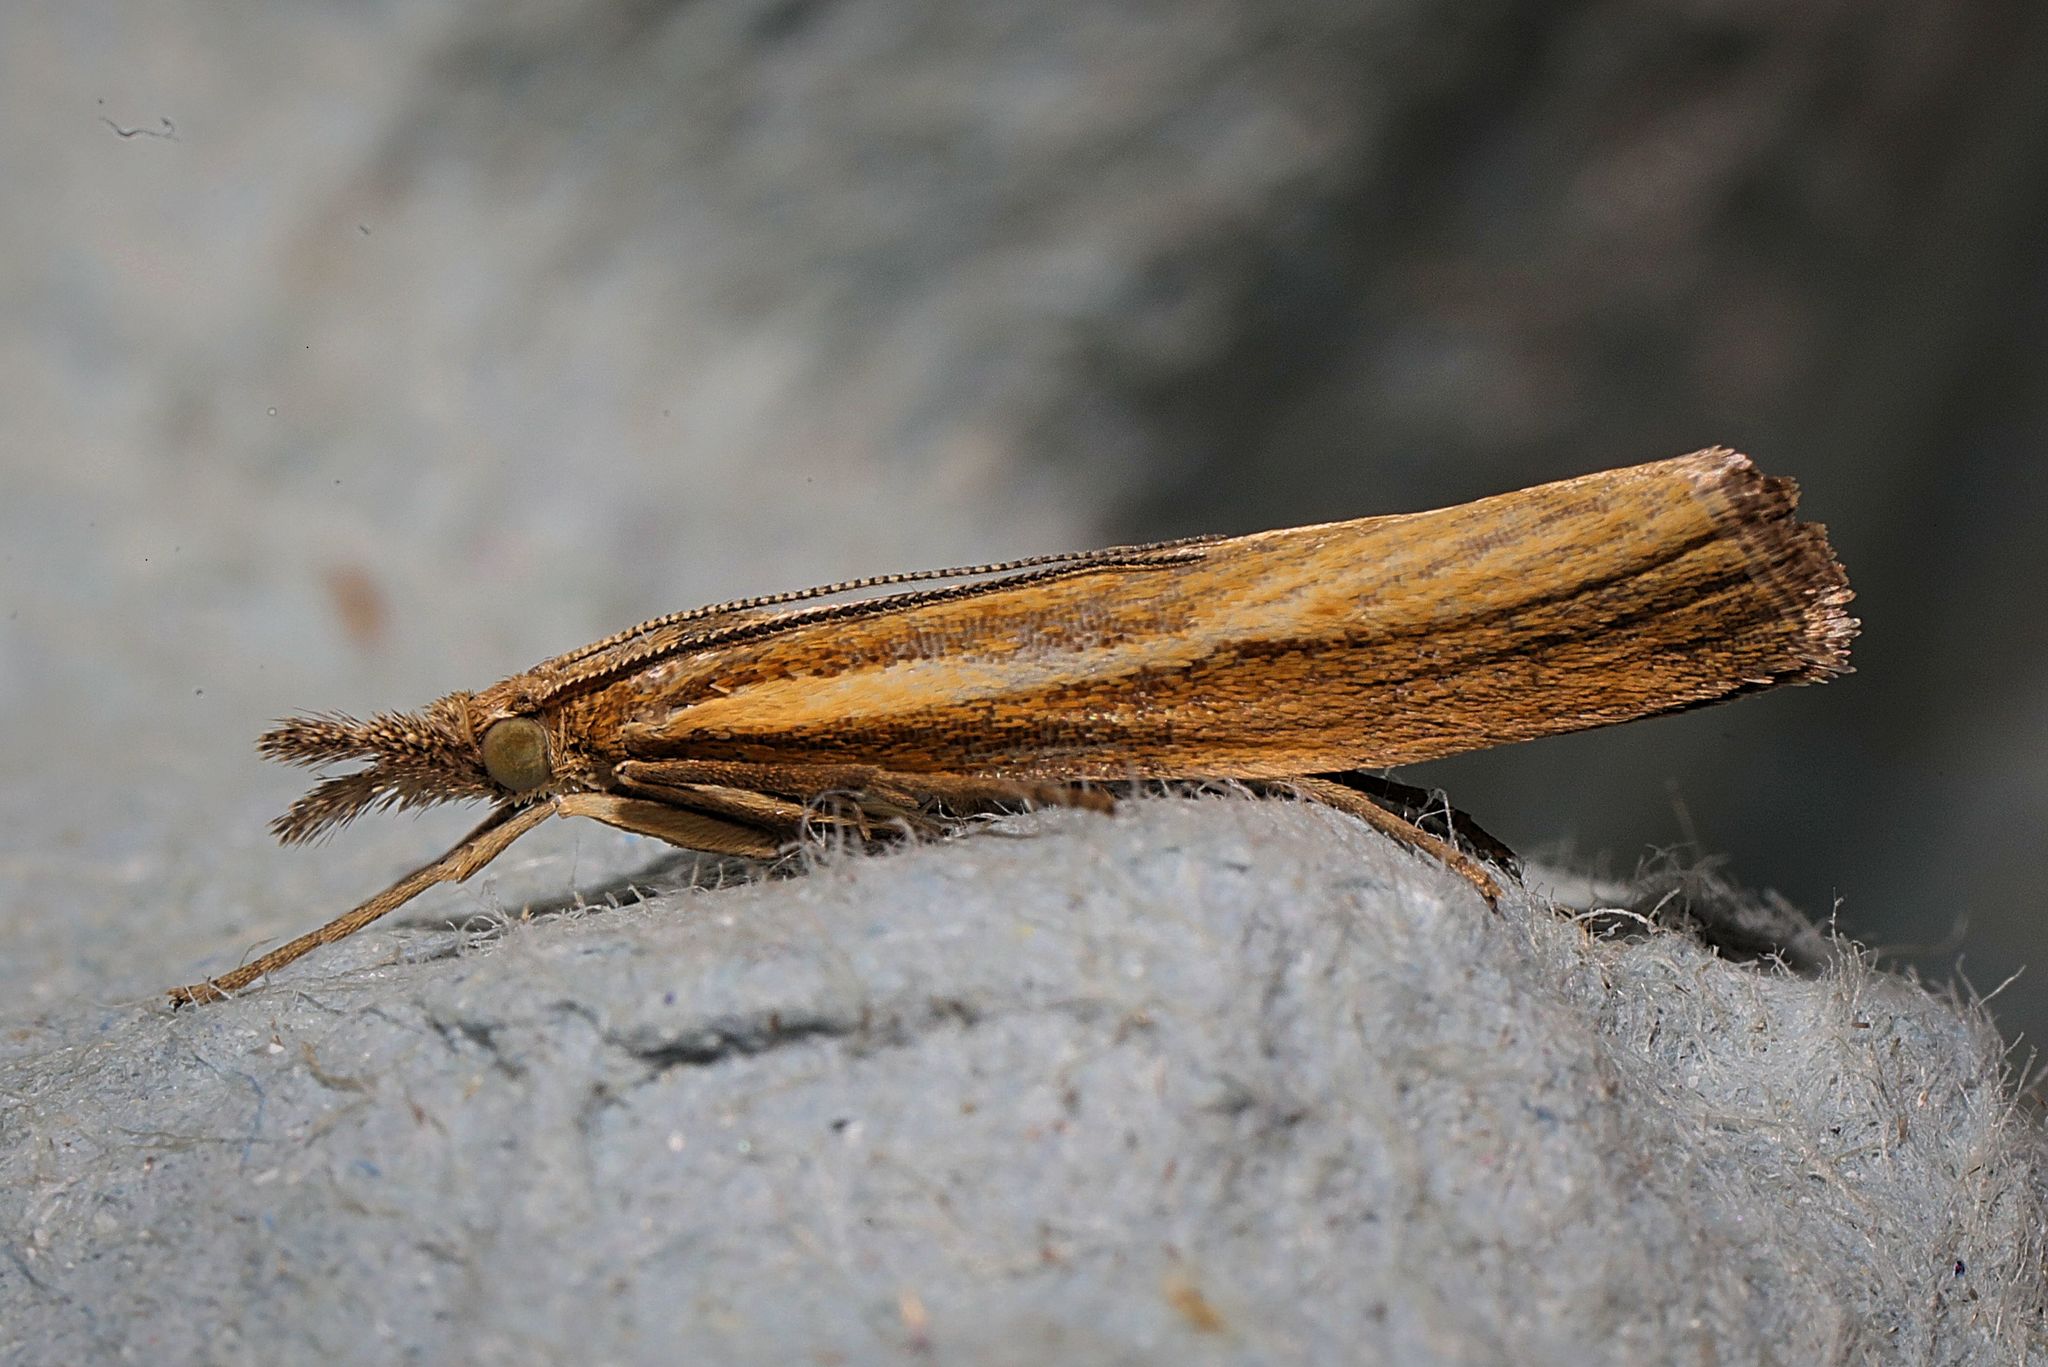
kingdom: Animalia
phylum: Arthropoda
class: Insecta
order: Lepidoptera
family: Crambidae
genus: Agriphila
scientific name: Agriphila tristellus
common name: Common grass-veneer
